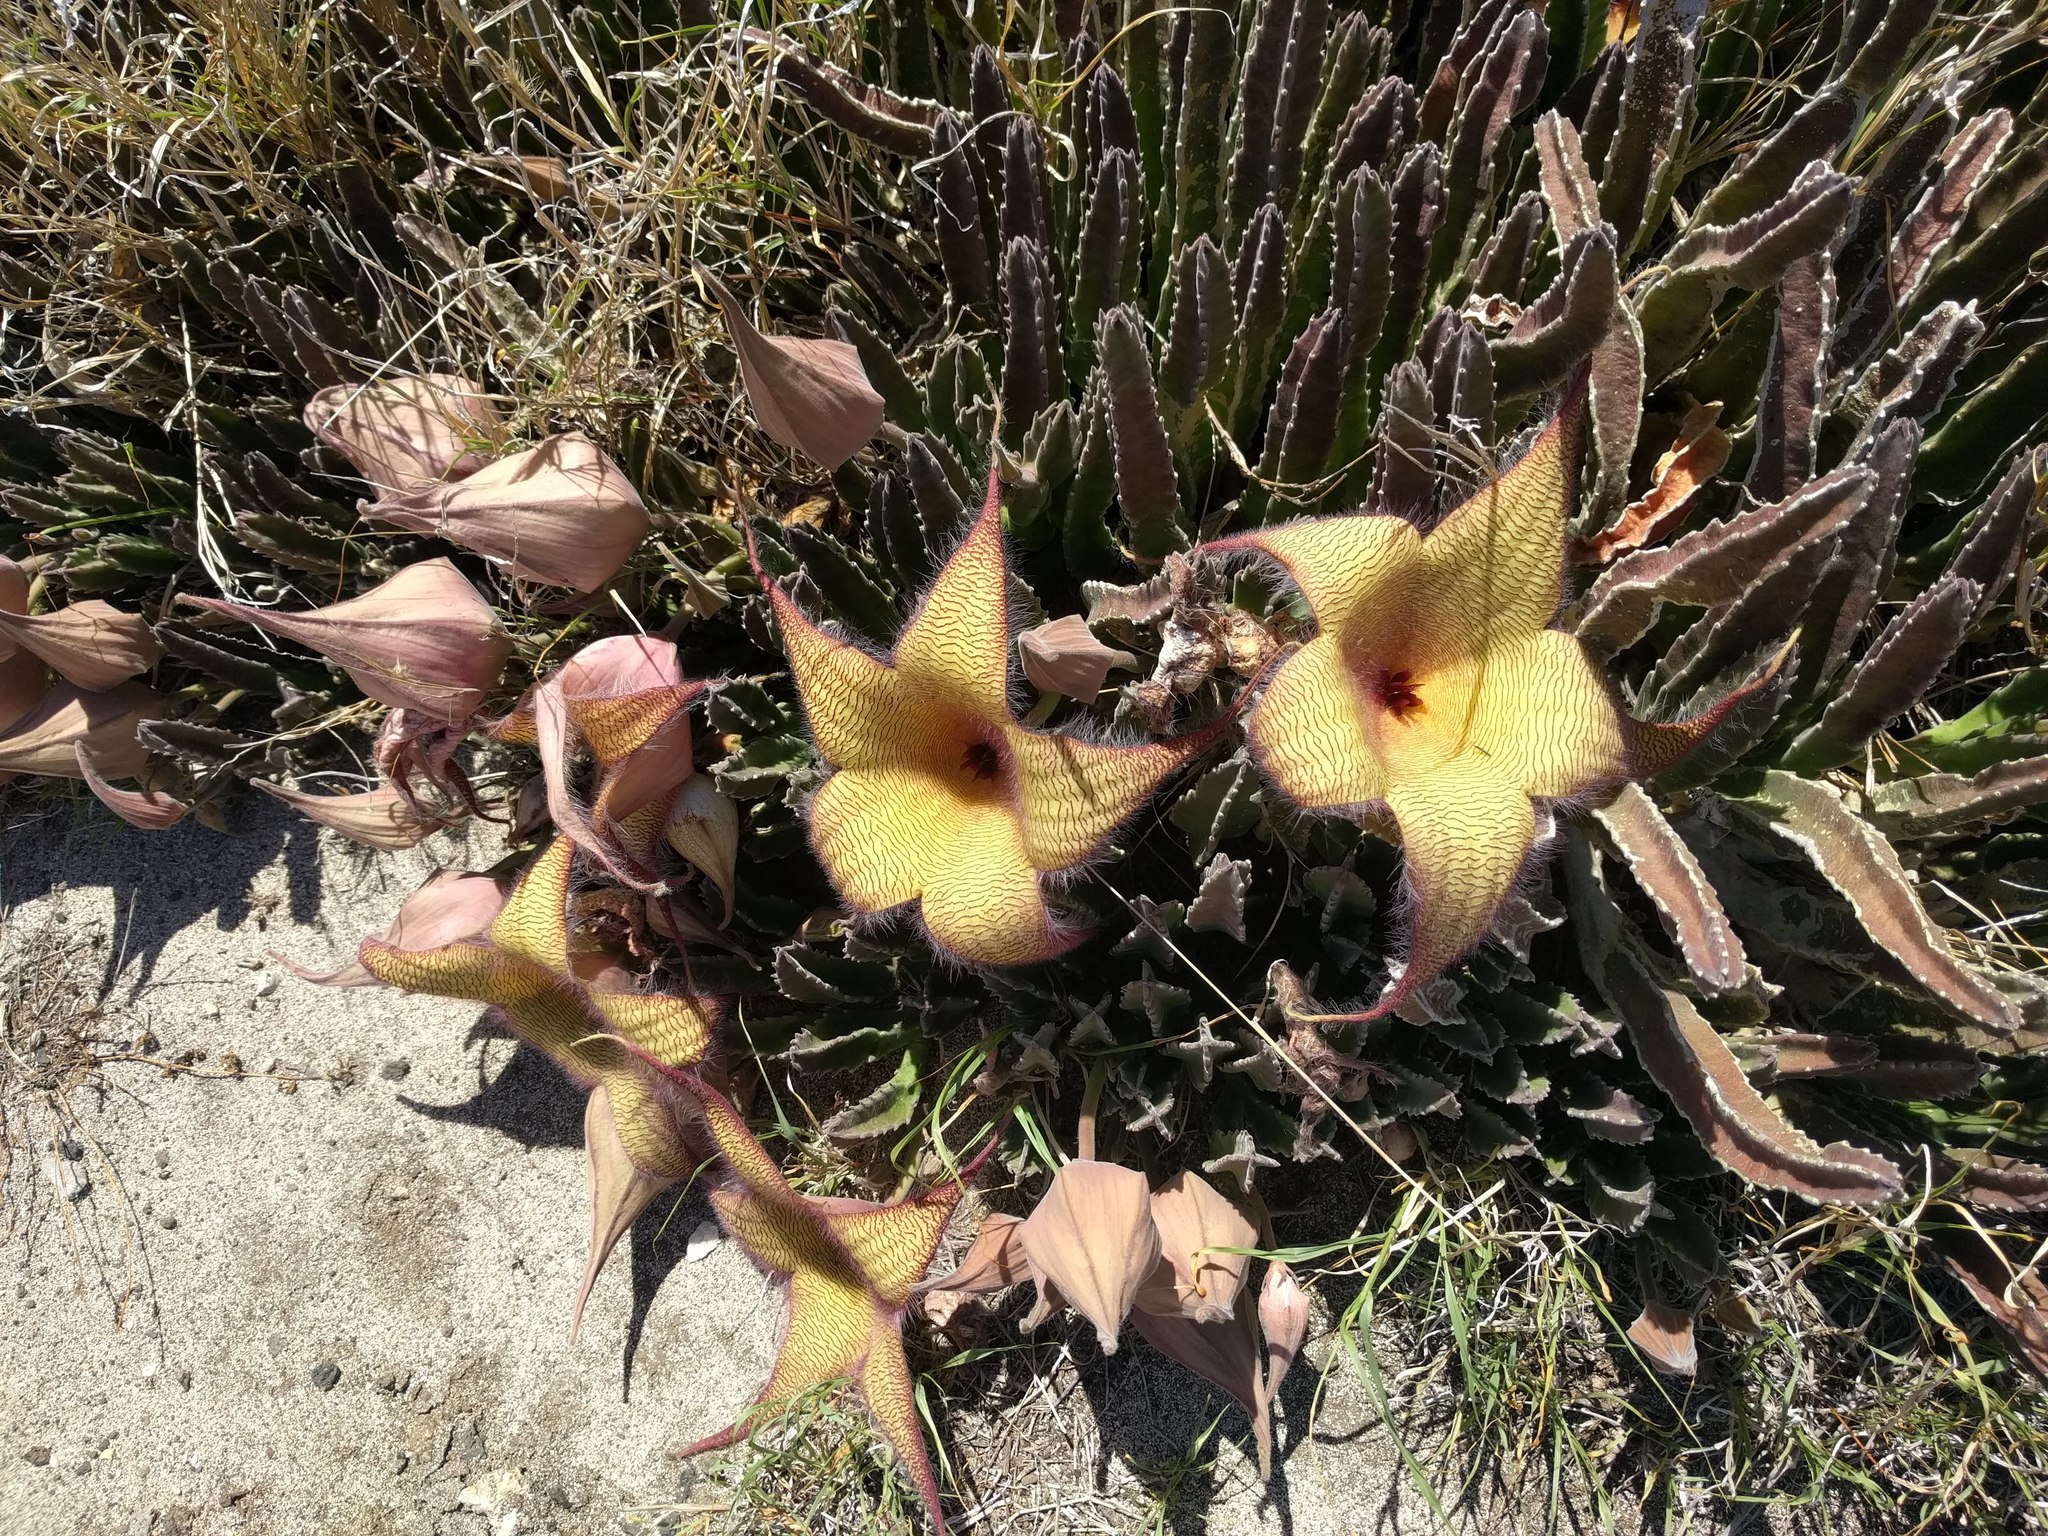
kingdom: Plantae
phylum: Tracheophyta
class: Magnoliopsida
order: Gentianales
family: Apocynaceae
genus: Ceropegia
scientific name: Ceropegia gigantea
